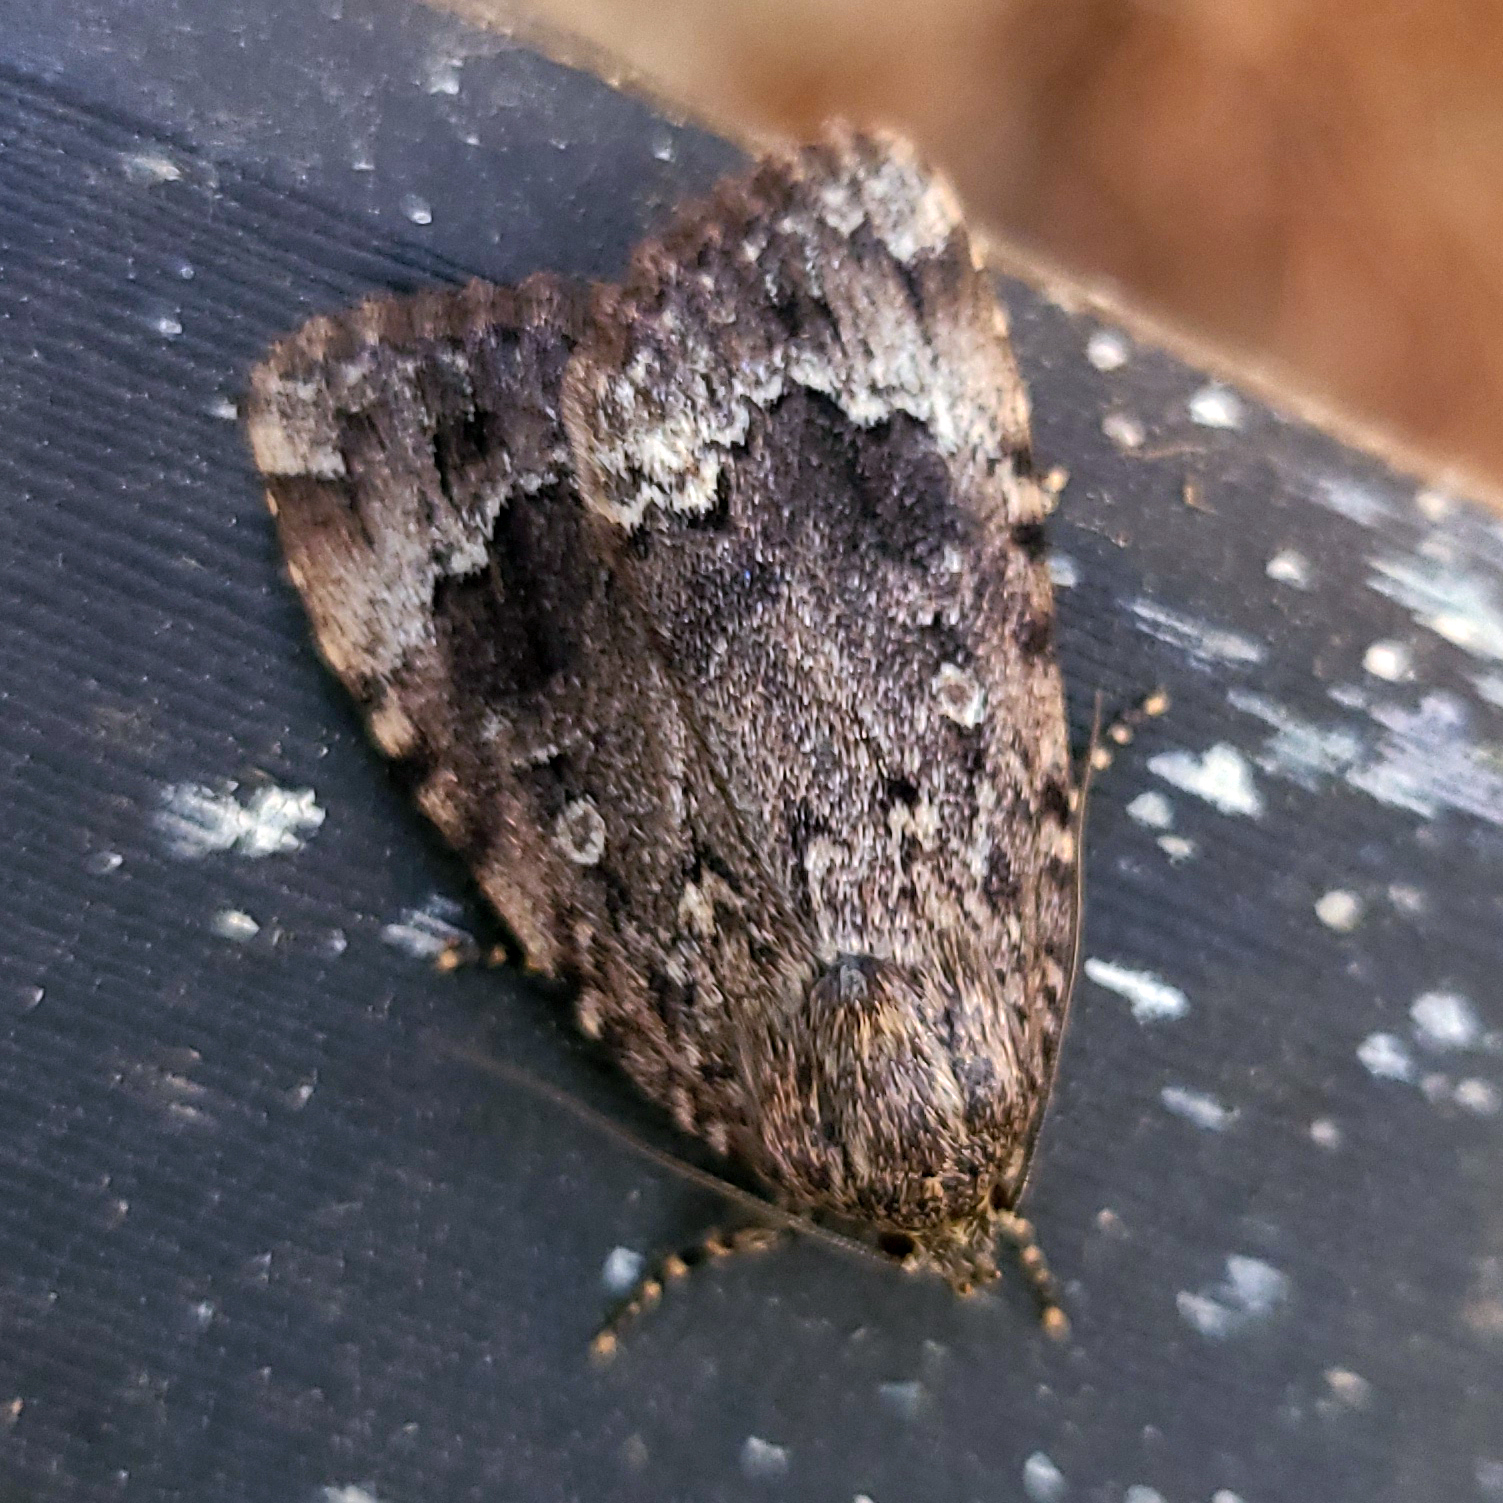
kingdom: Animalia
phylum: Arthropoda
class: Insecta
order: Lepidoptera
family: Noctuidae
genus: Amphipyra
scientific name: Amphipyra pyramidoides
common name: American copper underwing
